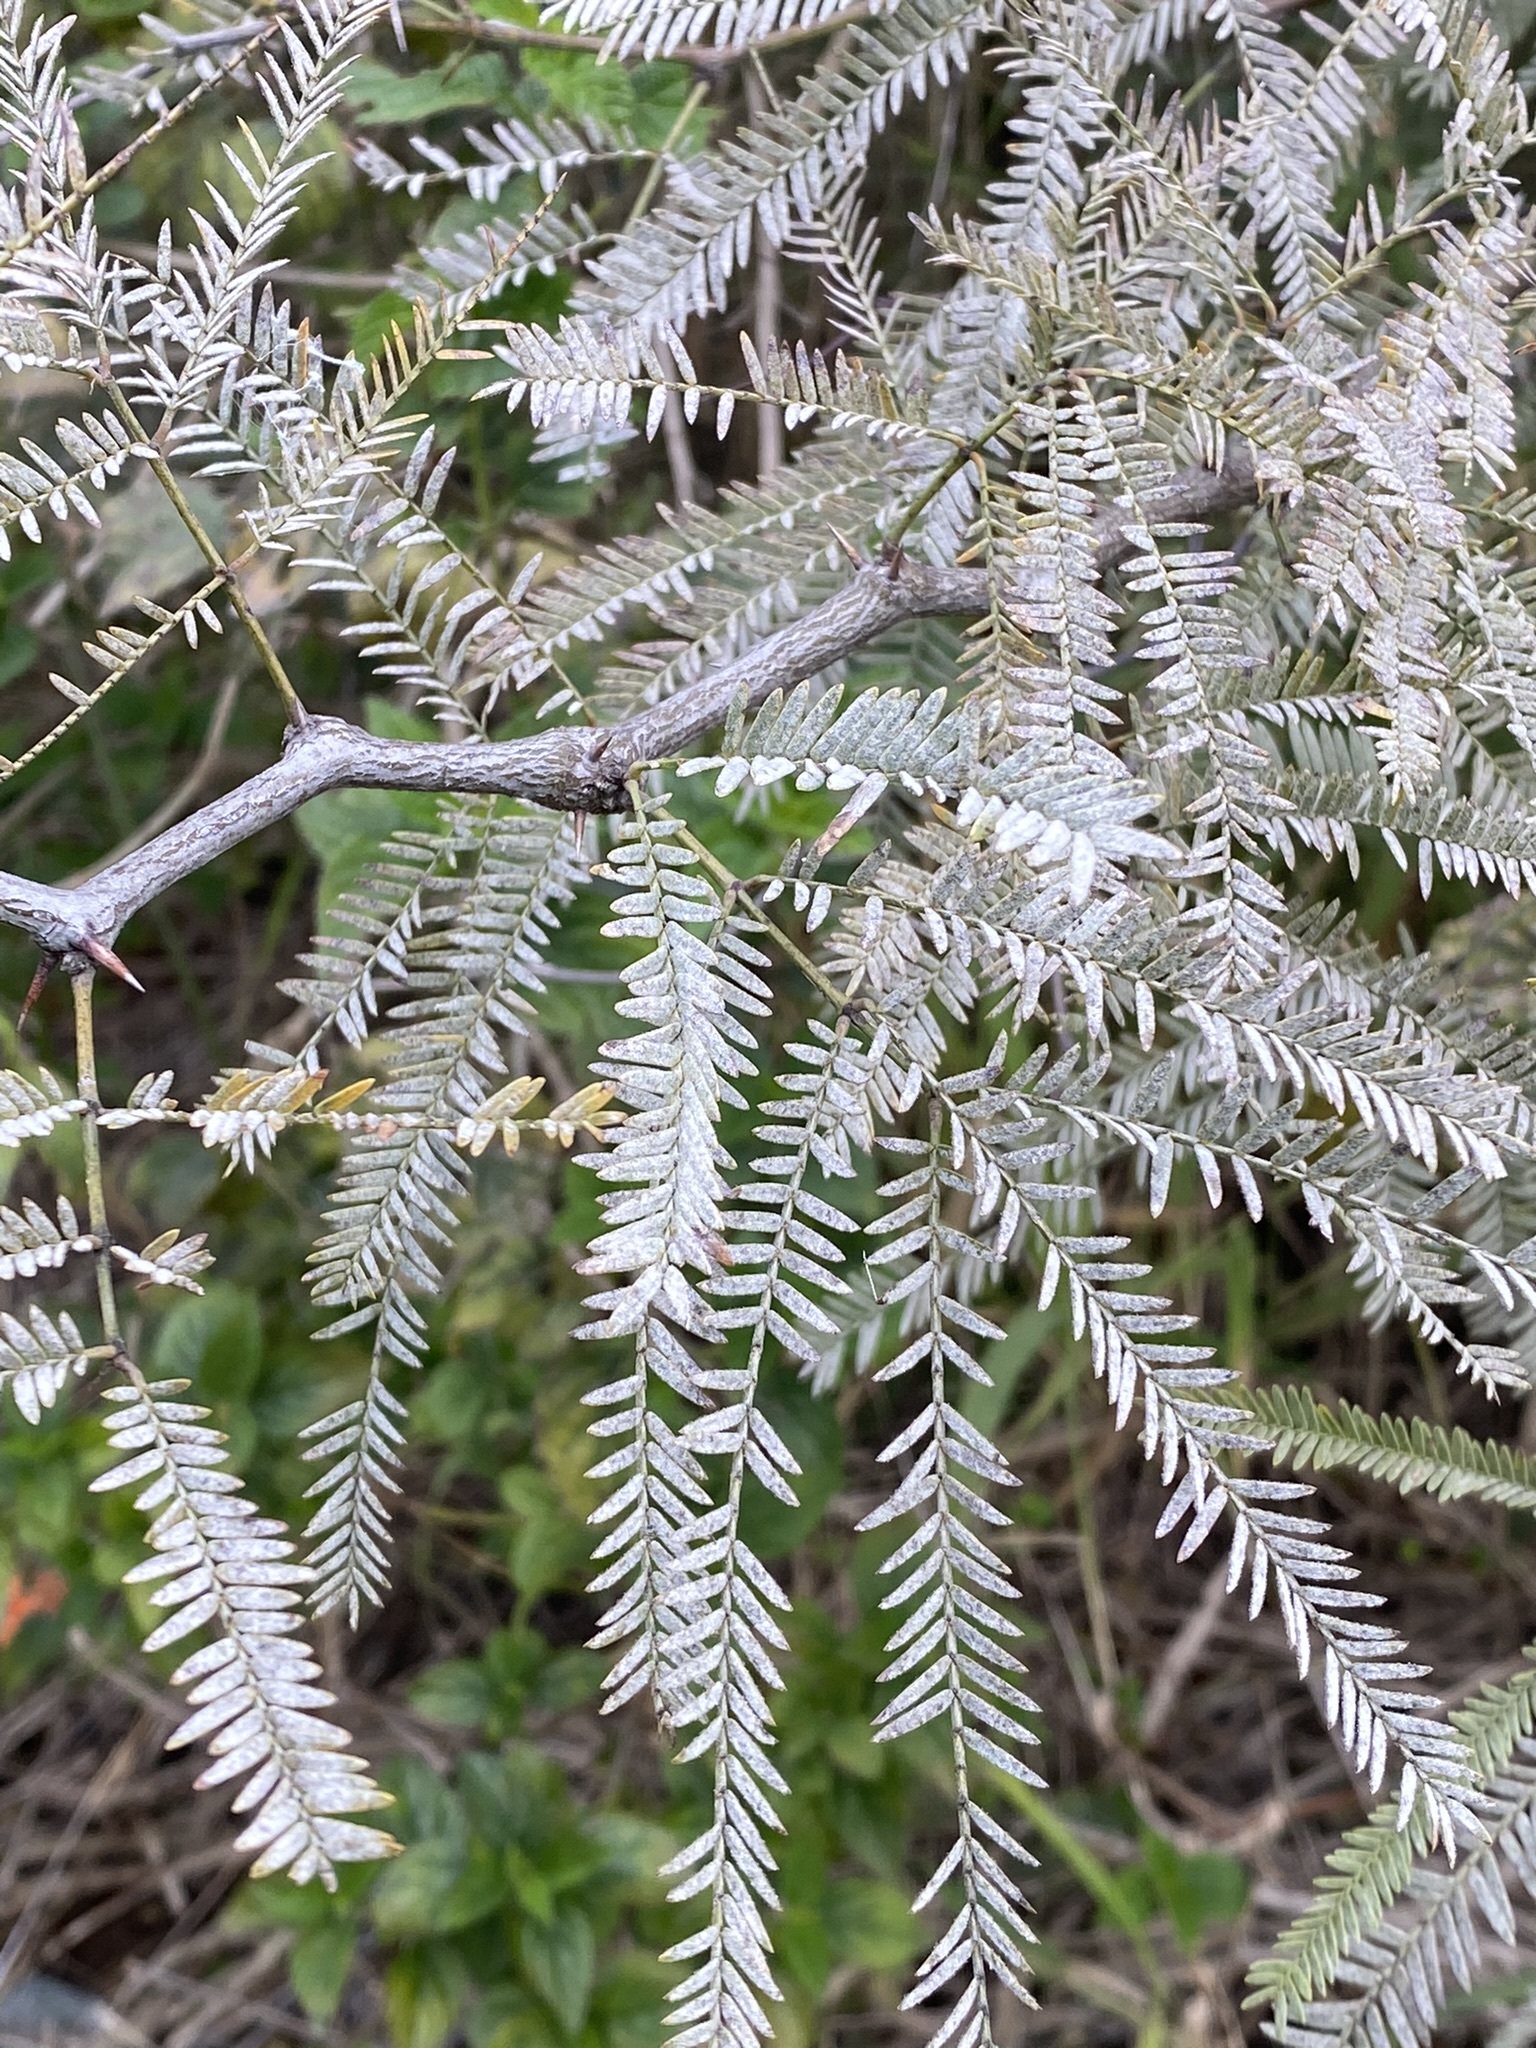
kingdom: Plantae
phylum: Tracheophyta
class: Magnoliopsida
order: Fabales
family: Fabaceae
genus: Prosopis
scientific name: Prosopis alba
